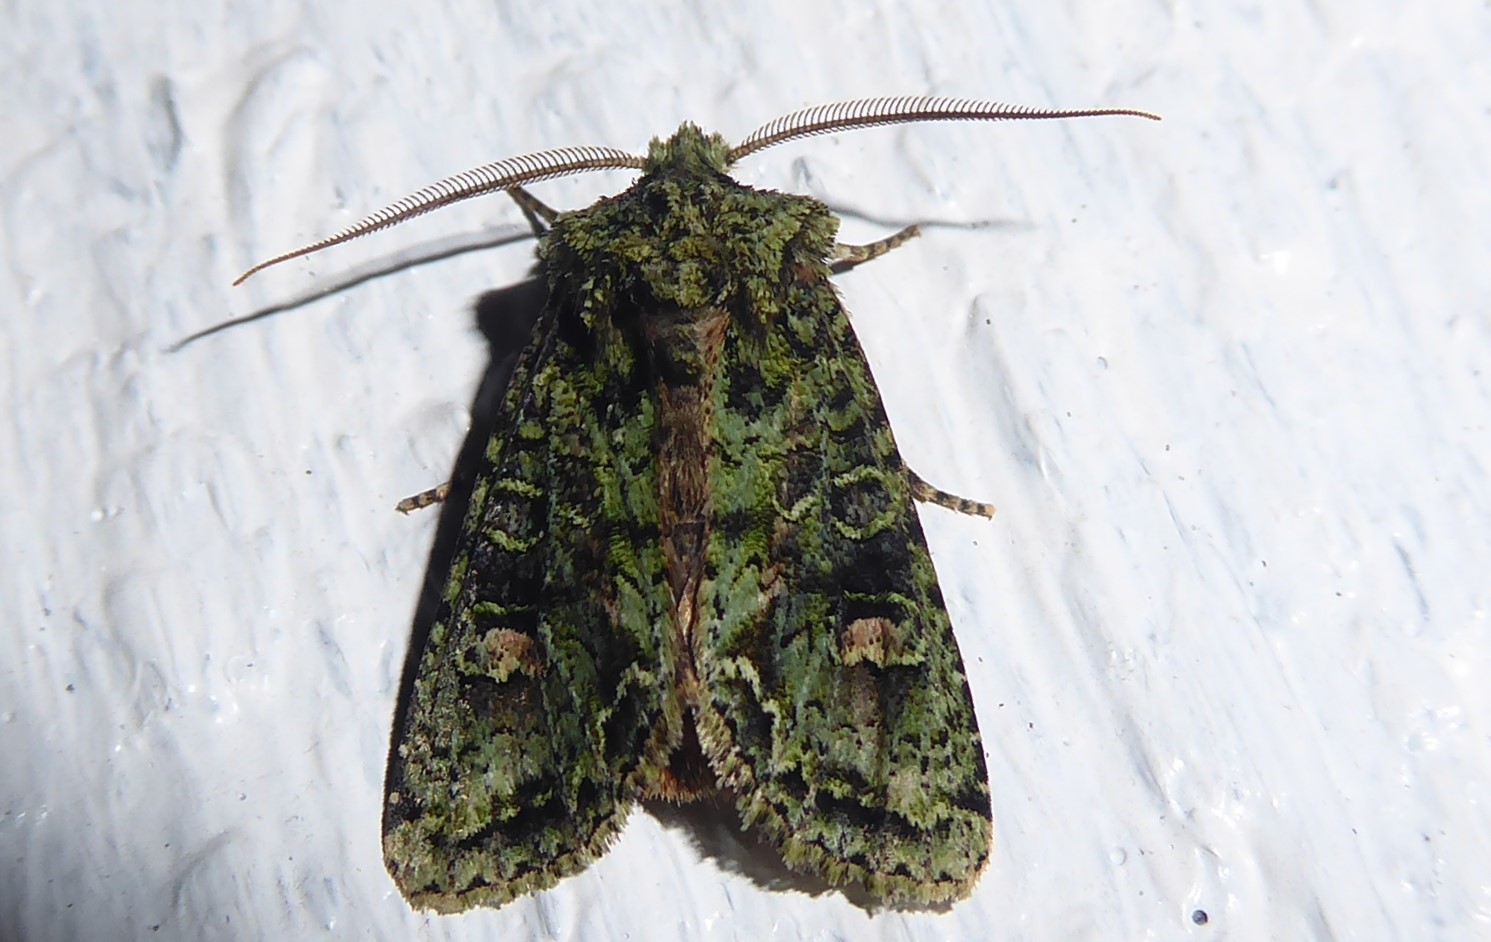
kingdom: Animalia
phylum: Arthropoda
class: Insecta
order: Lepidoptera
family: Noctuidae
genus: Ichneutica
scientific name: Ichneutica
